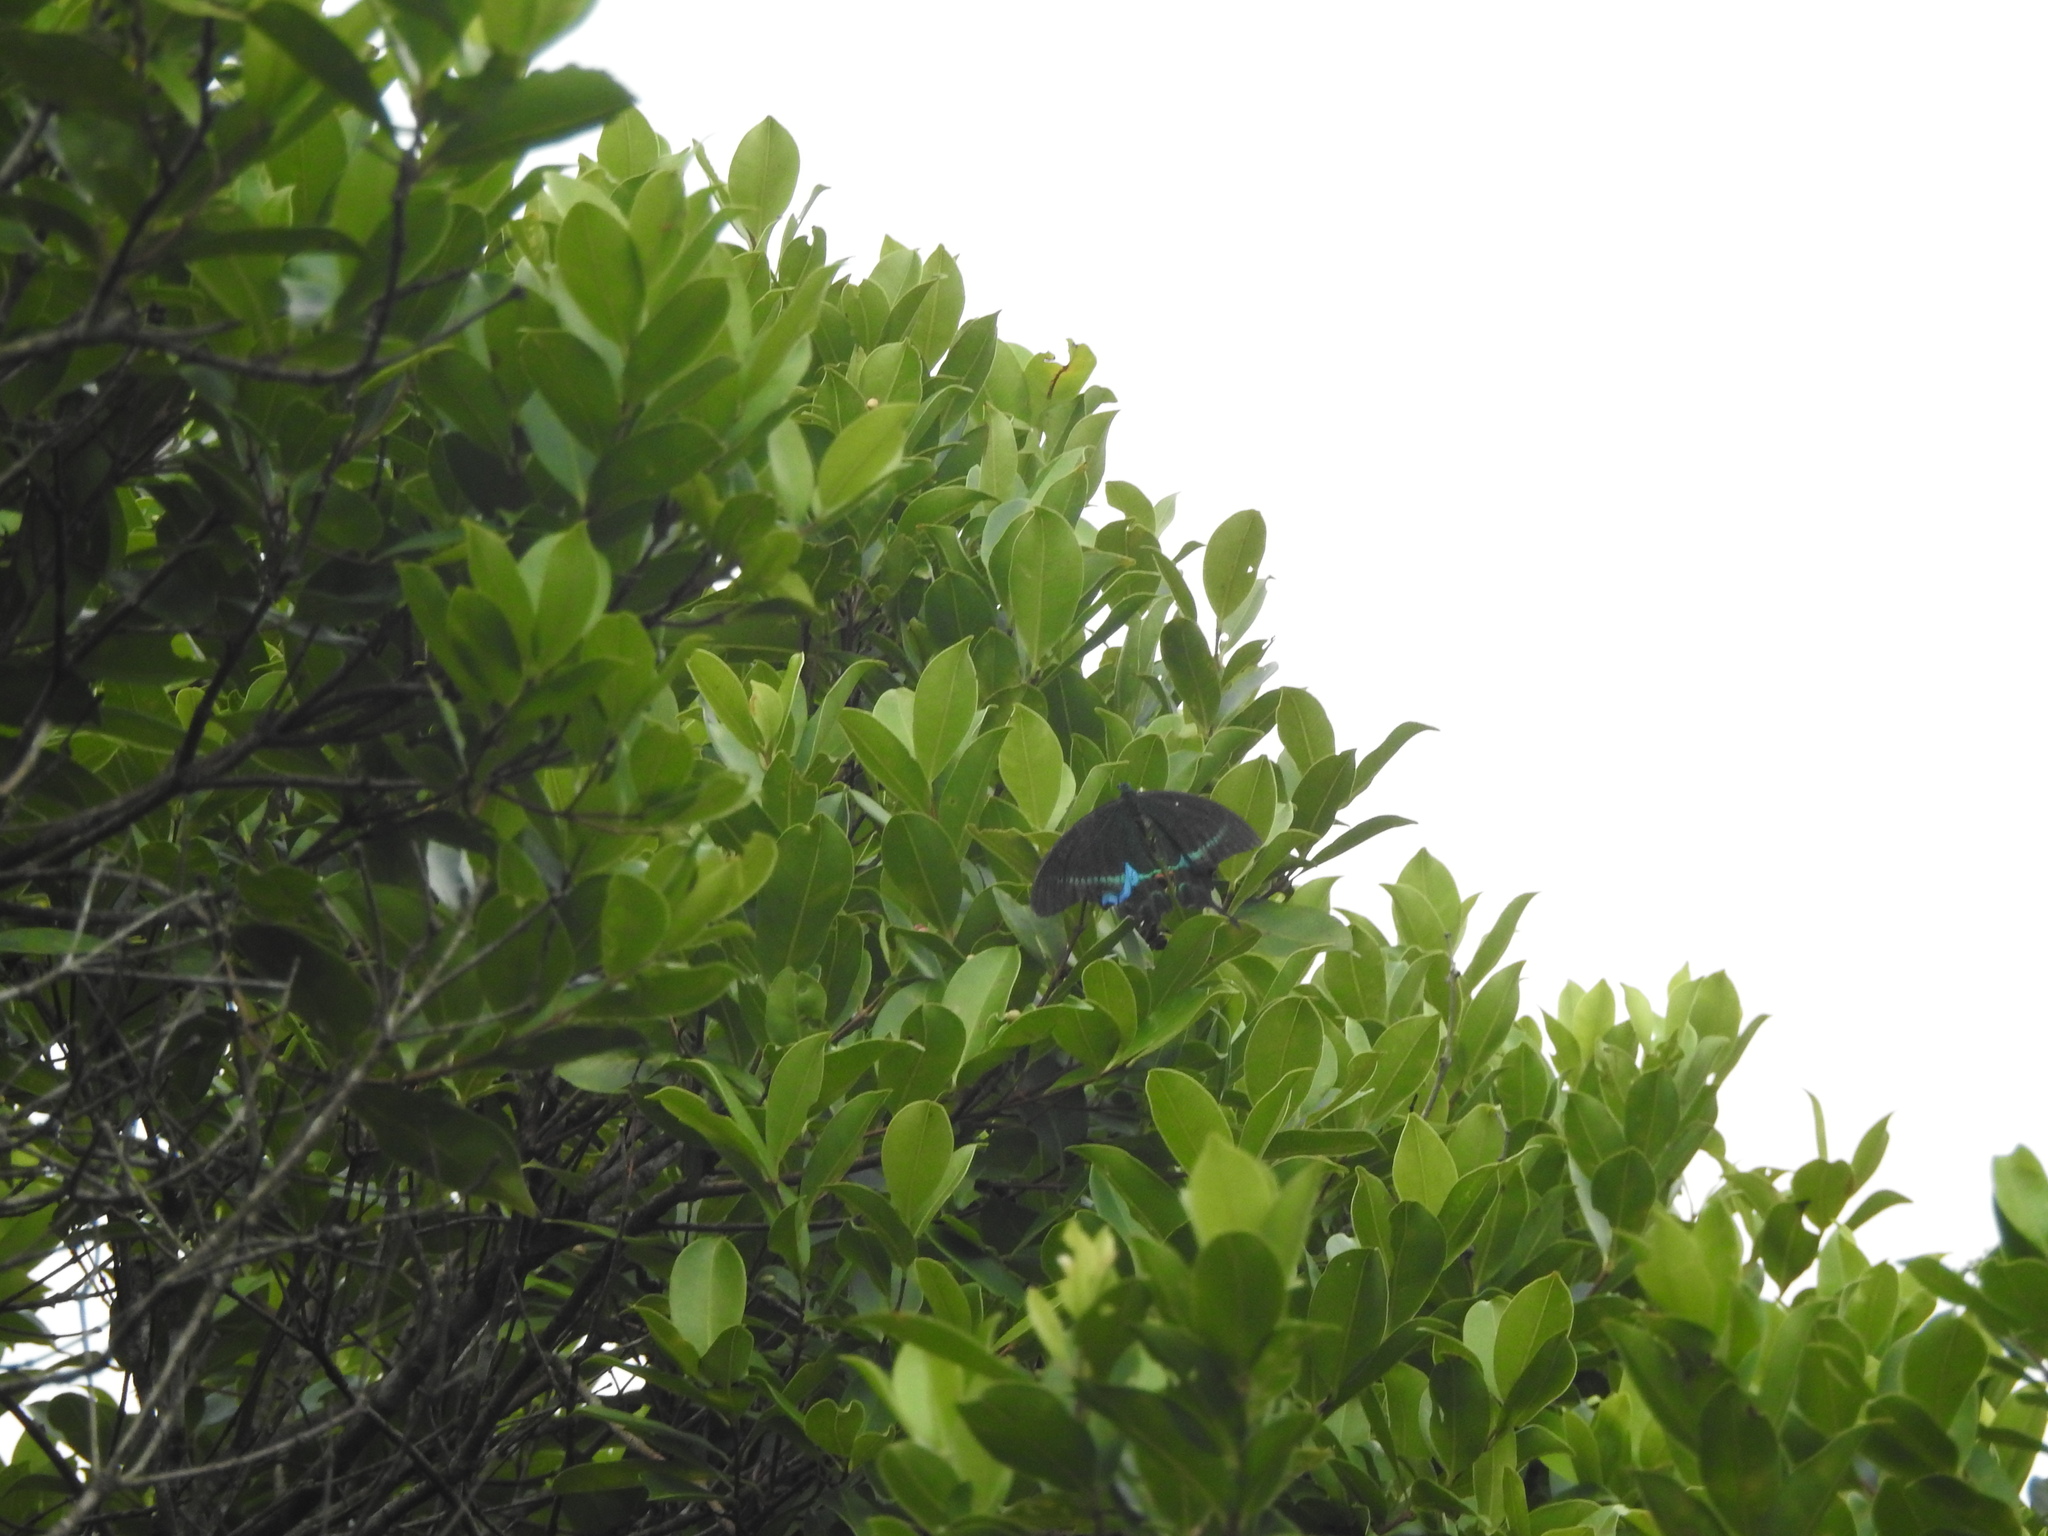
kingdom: Animalia
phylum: Arthropoda
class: Insecta
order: Lepidoptera
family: Papilionidae
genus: Papilio
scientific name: Papilio paris
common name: Paris peacock
